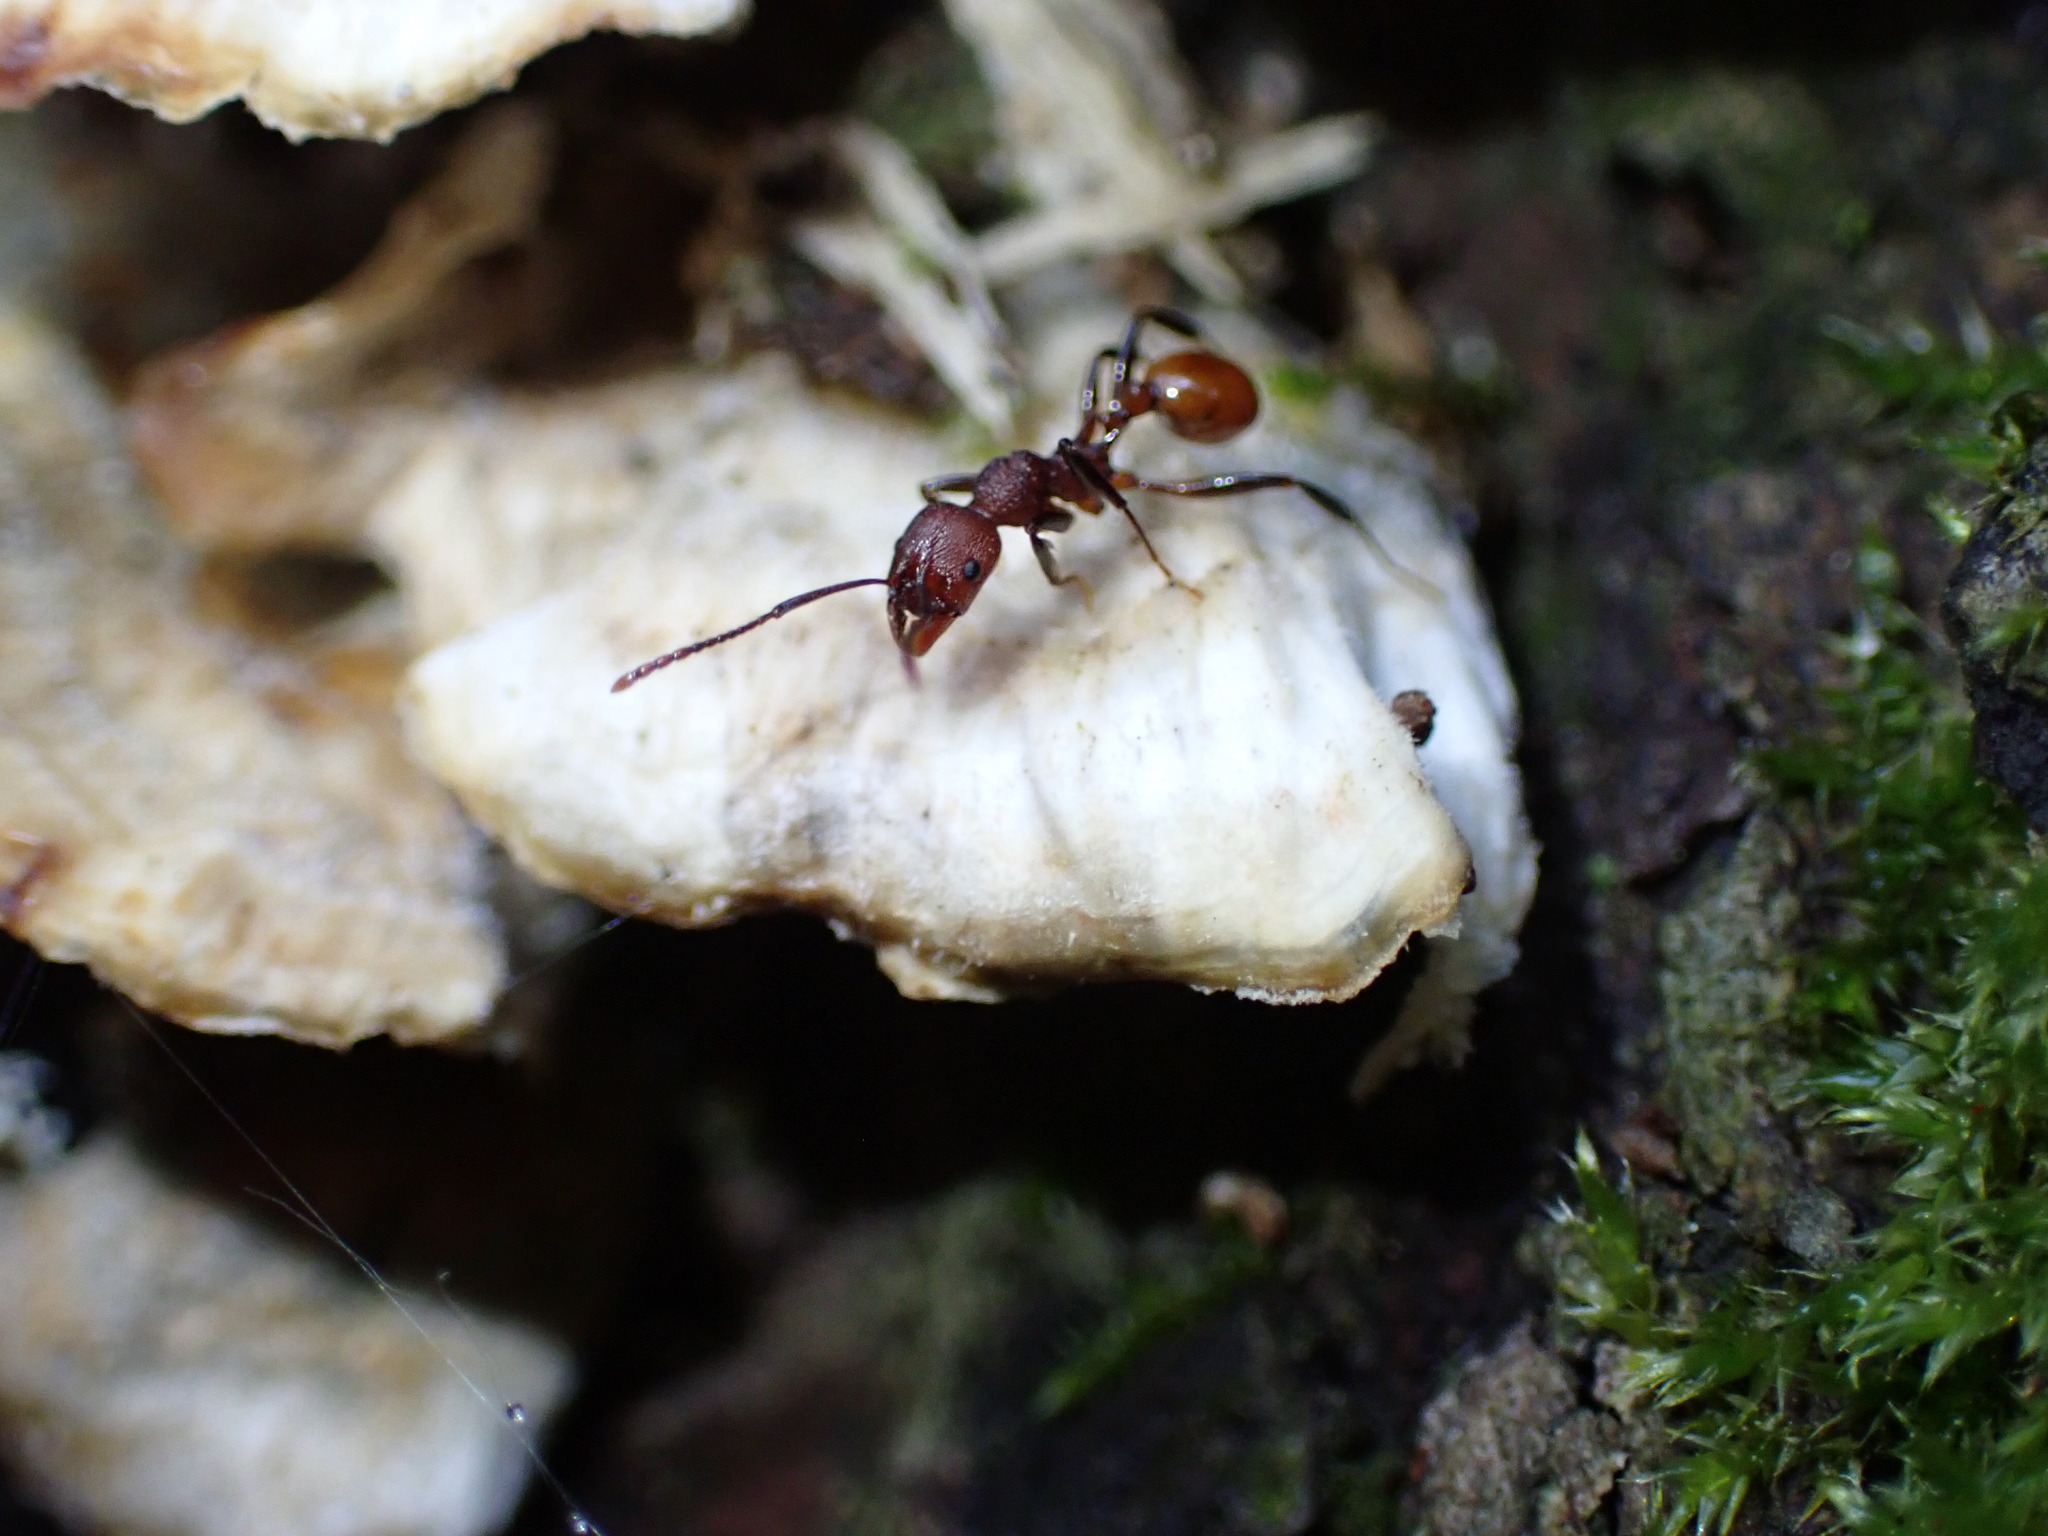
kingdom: Animalia
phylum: Arthropoda
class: Insecta
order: Hymenoptera
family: Formicidae
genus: Aphaenogaster
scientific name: Aphaenogaster tennesseensis
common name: Tennessee thread-waisted ant
